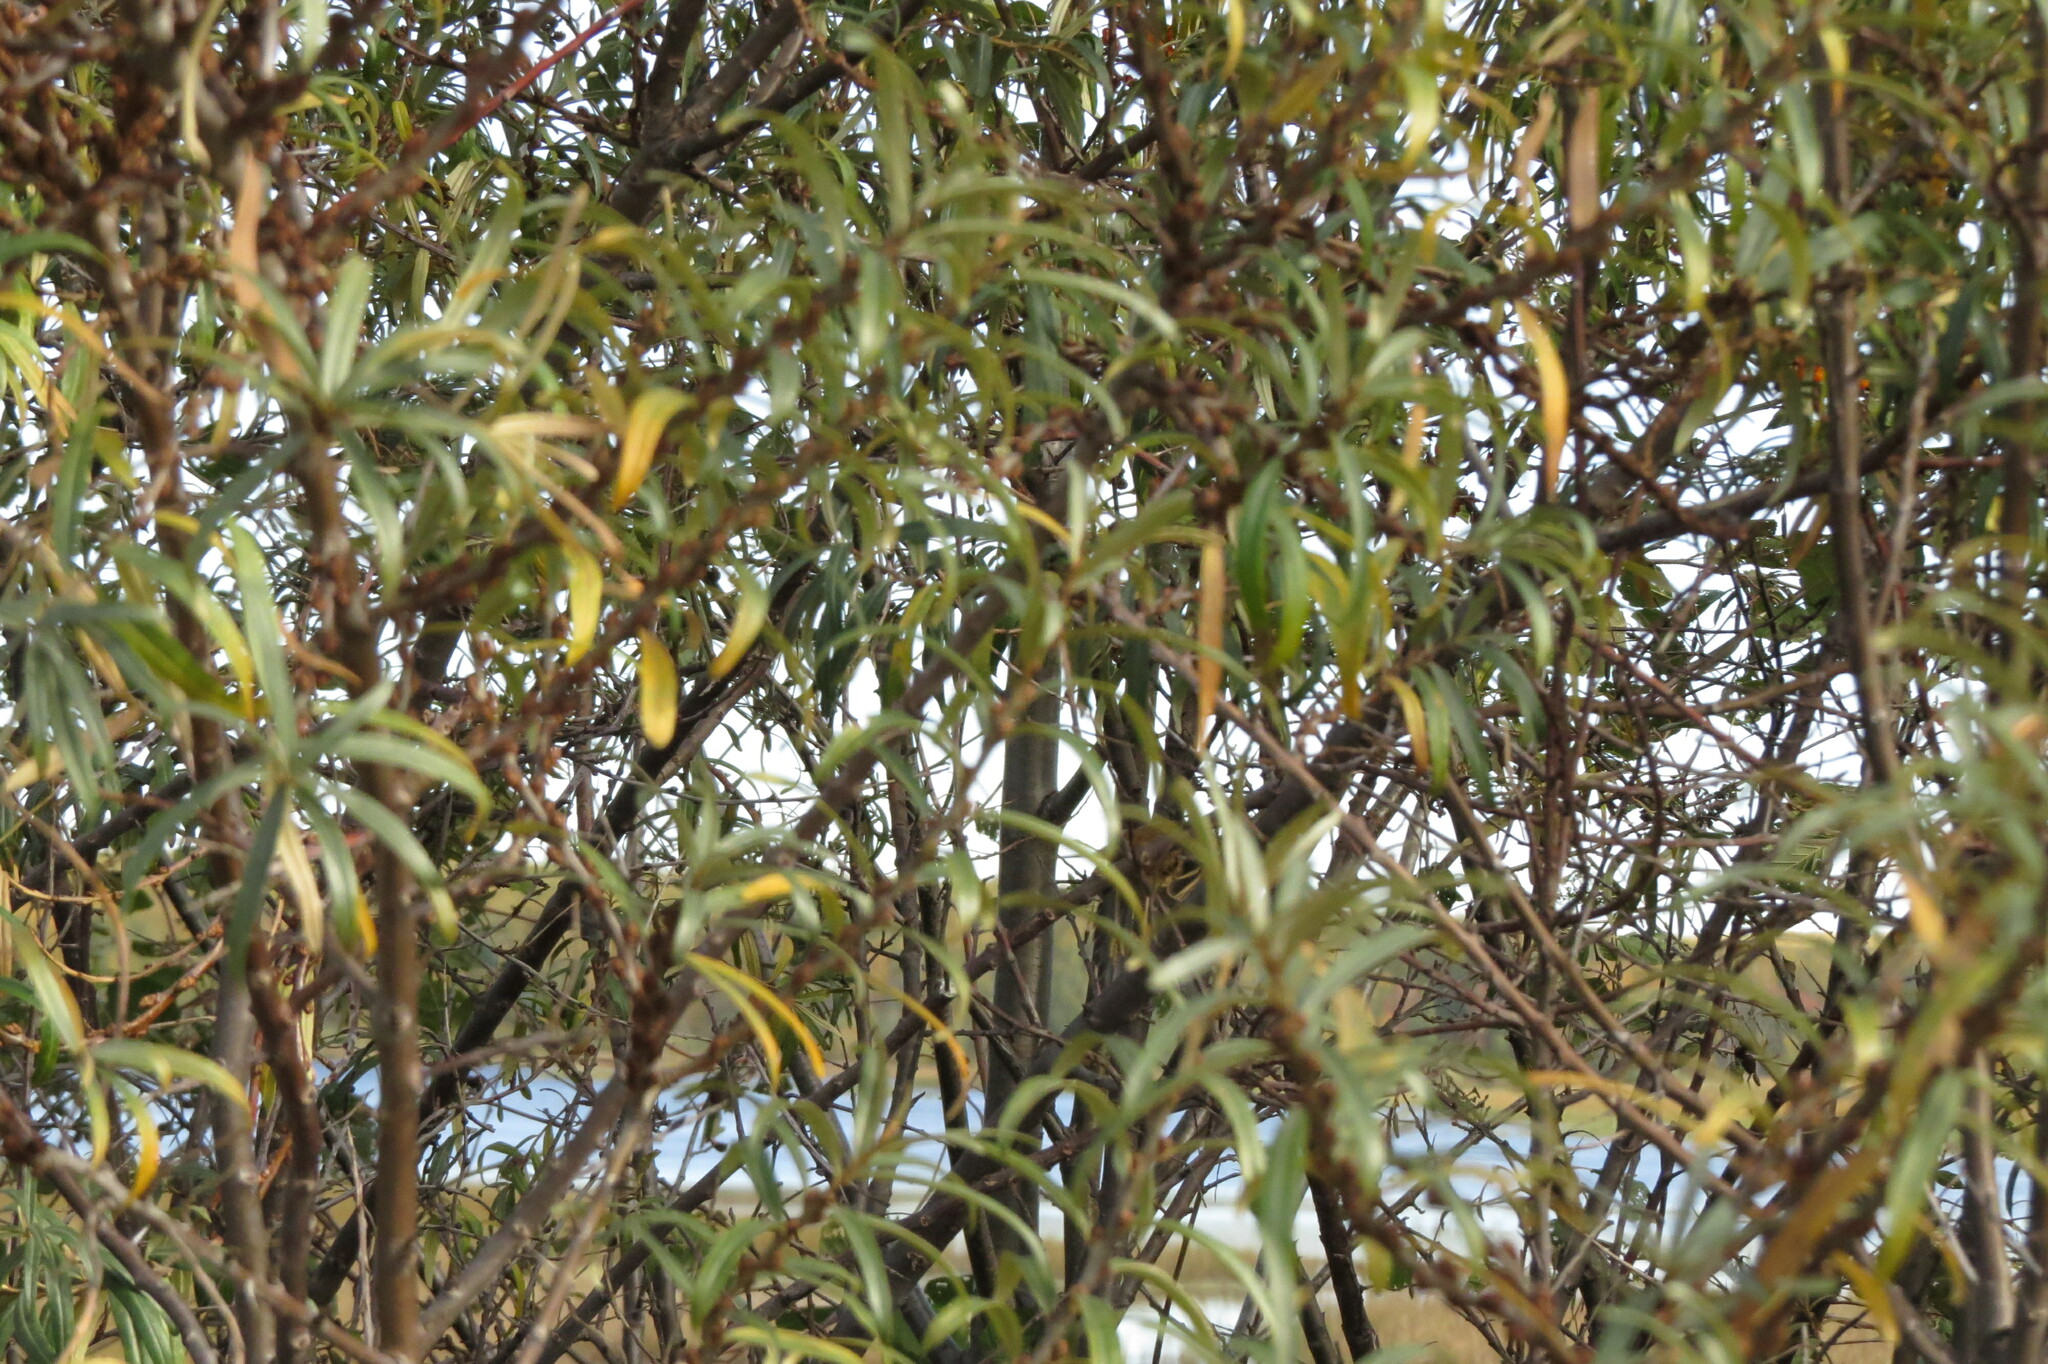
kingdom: Animalia
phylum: Chordata
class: Aves
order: Passeriformes
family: Acrocephalidae
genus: Acrocephalus
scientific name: Acrocephalus schoenobaenus
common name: Sedge warbler
